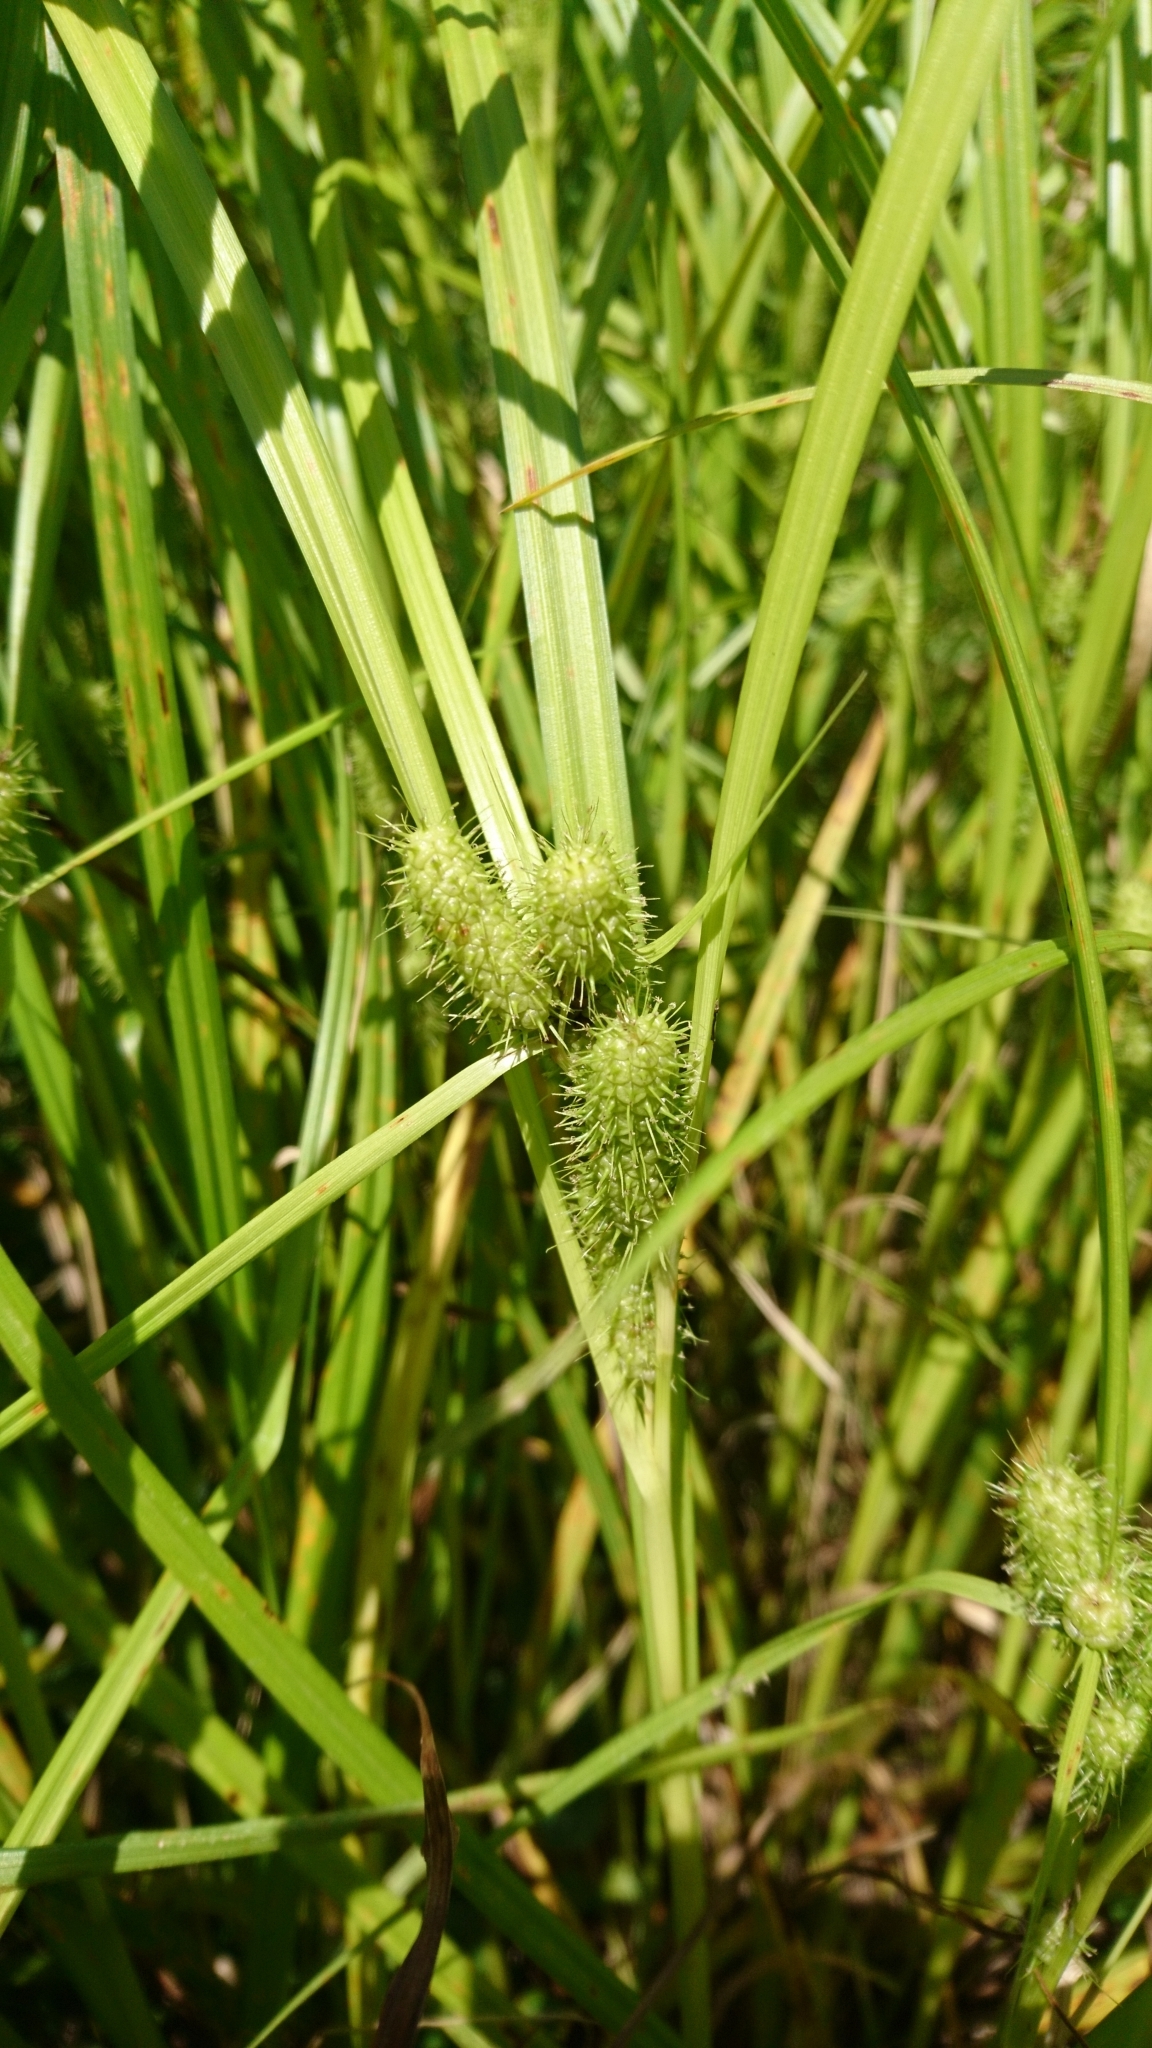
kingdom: Plantae
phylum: Tracheophyta
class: Liliopsida
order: Poales
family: Cyperaceae
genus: Carex
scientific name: Carex frankii
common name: Frank's sedge
